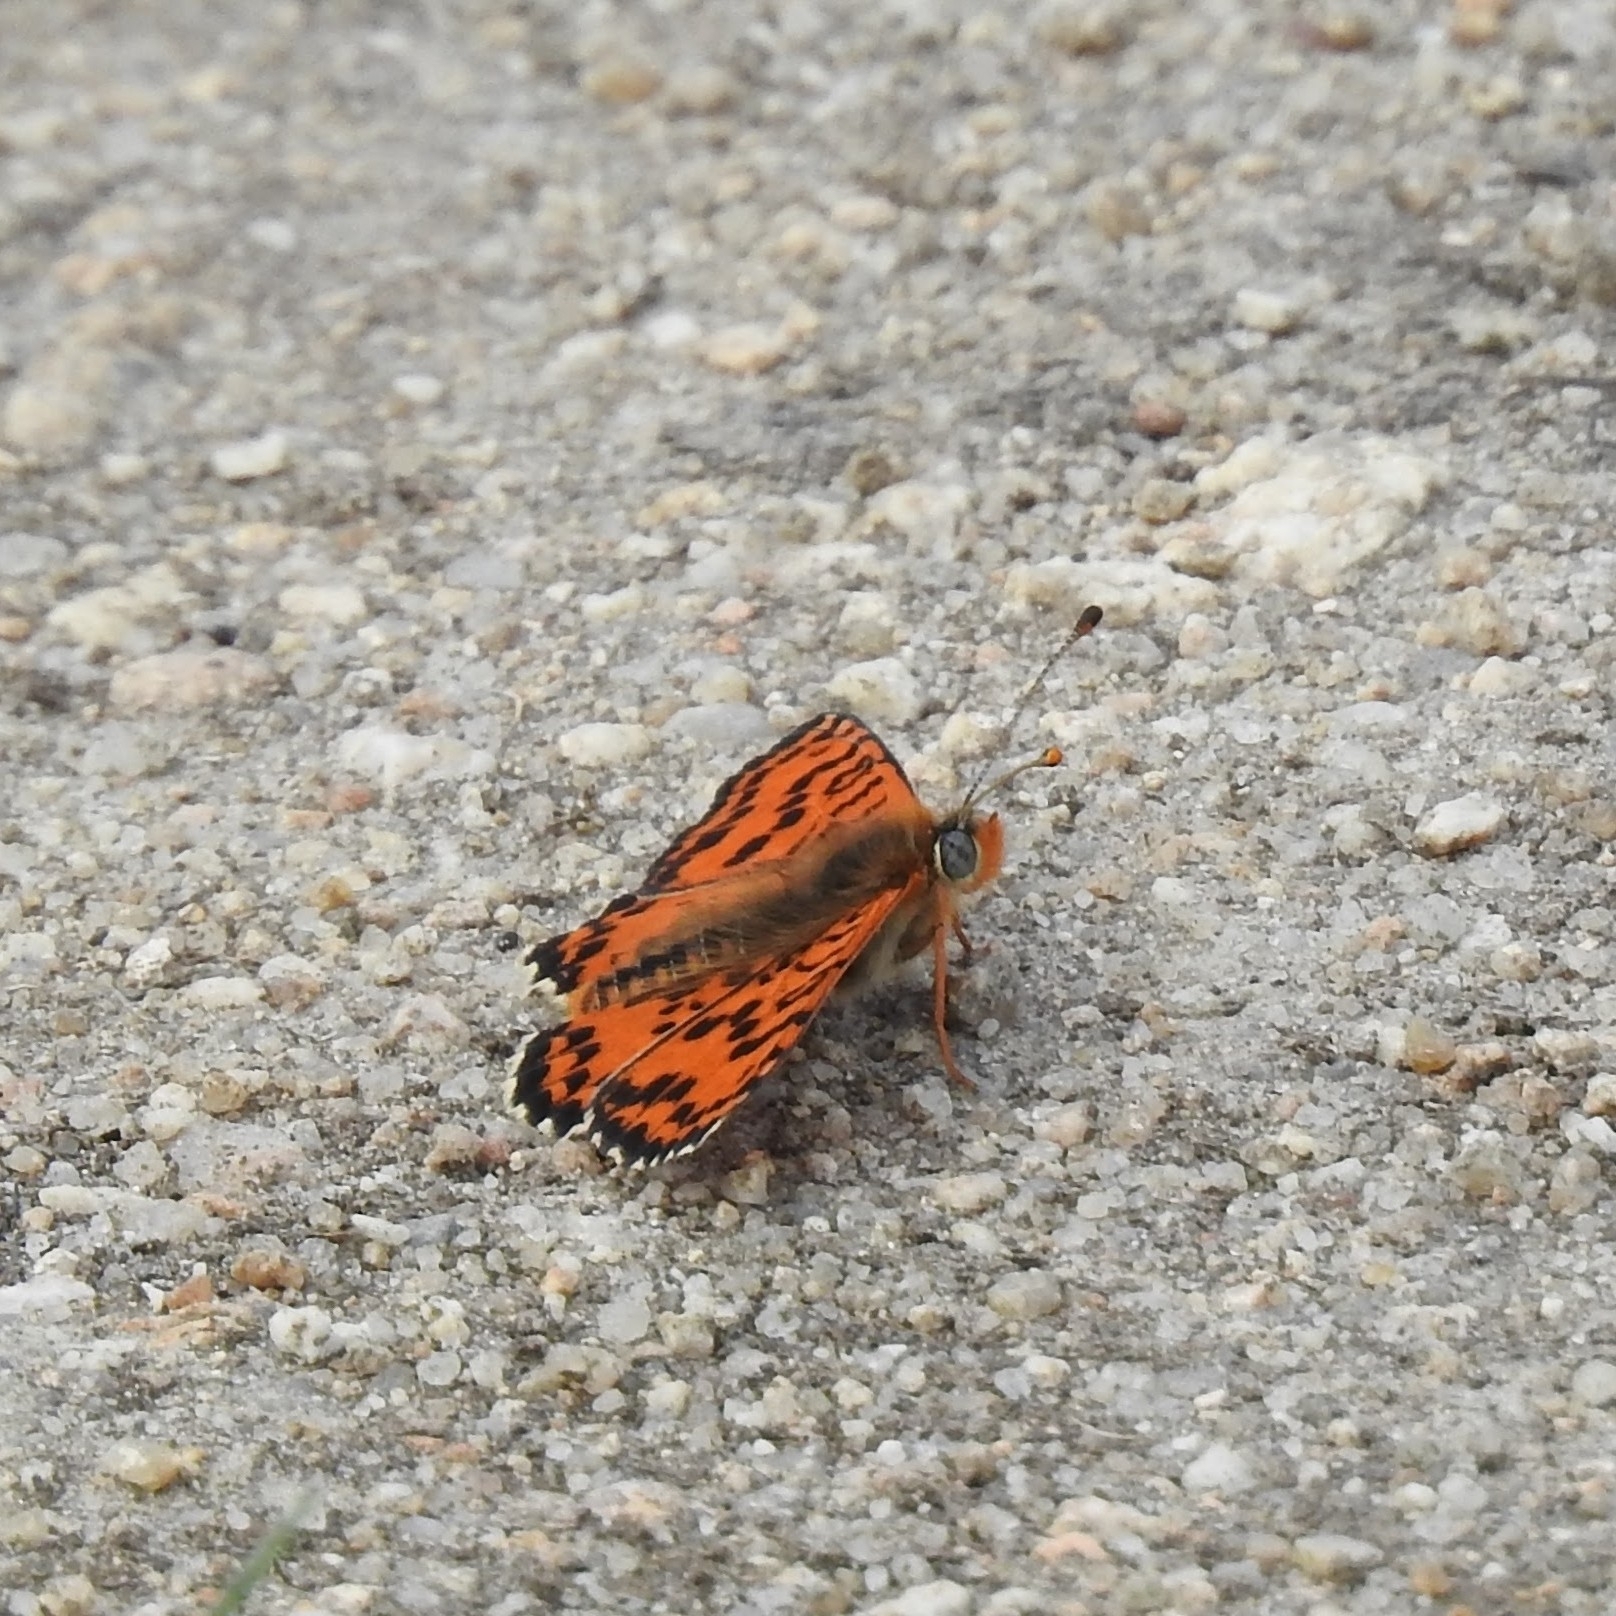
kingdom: Animalia
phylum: Arthropoda
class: Insecta
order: Lepidoptera
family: Nymphalidae
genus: Melitaea
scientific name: Melitaea didyma
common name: Spotted fritillary
